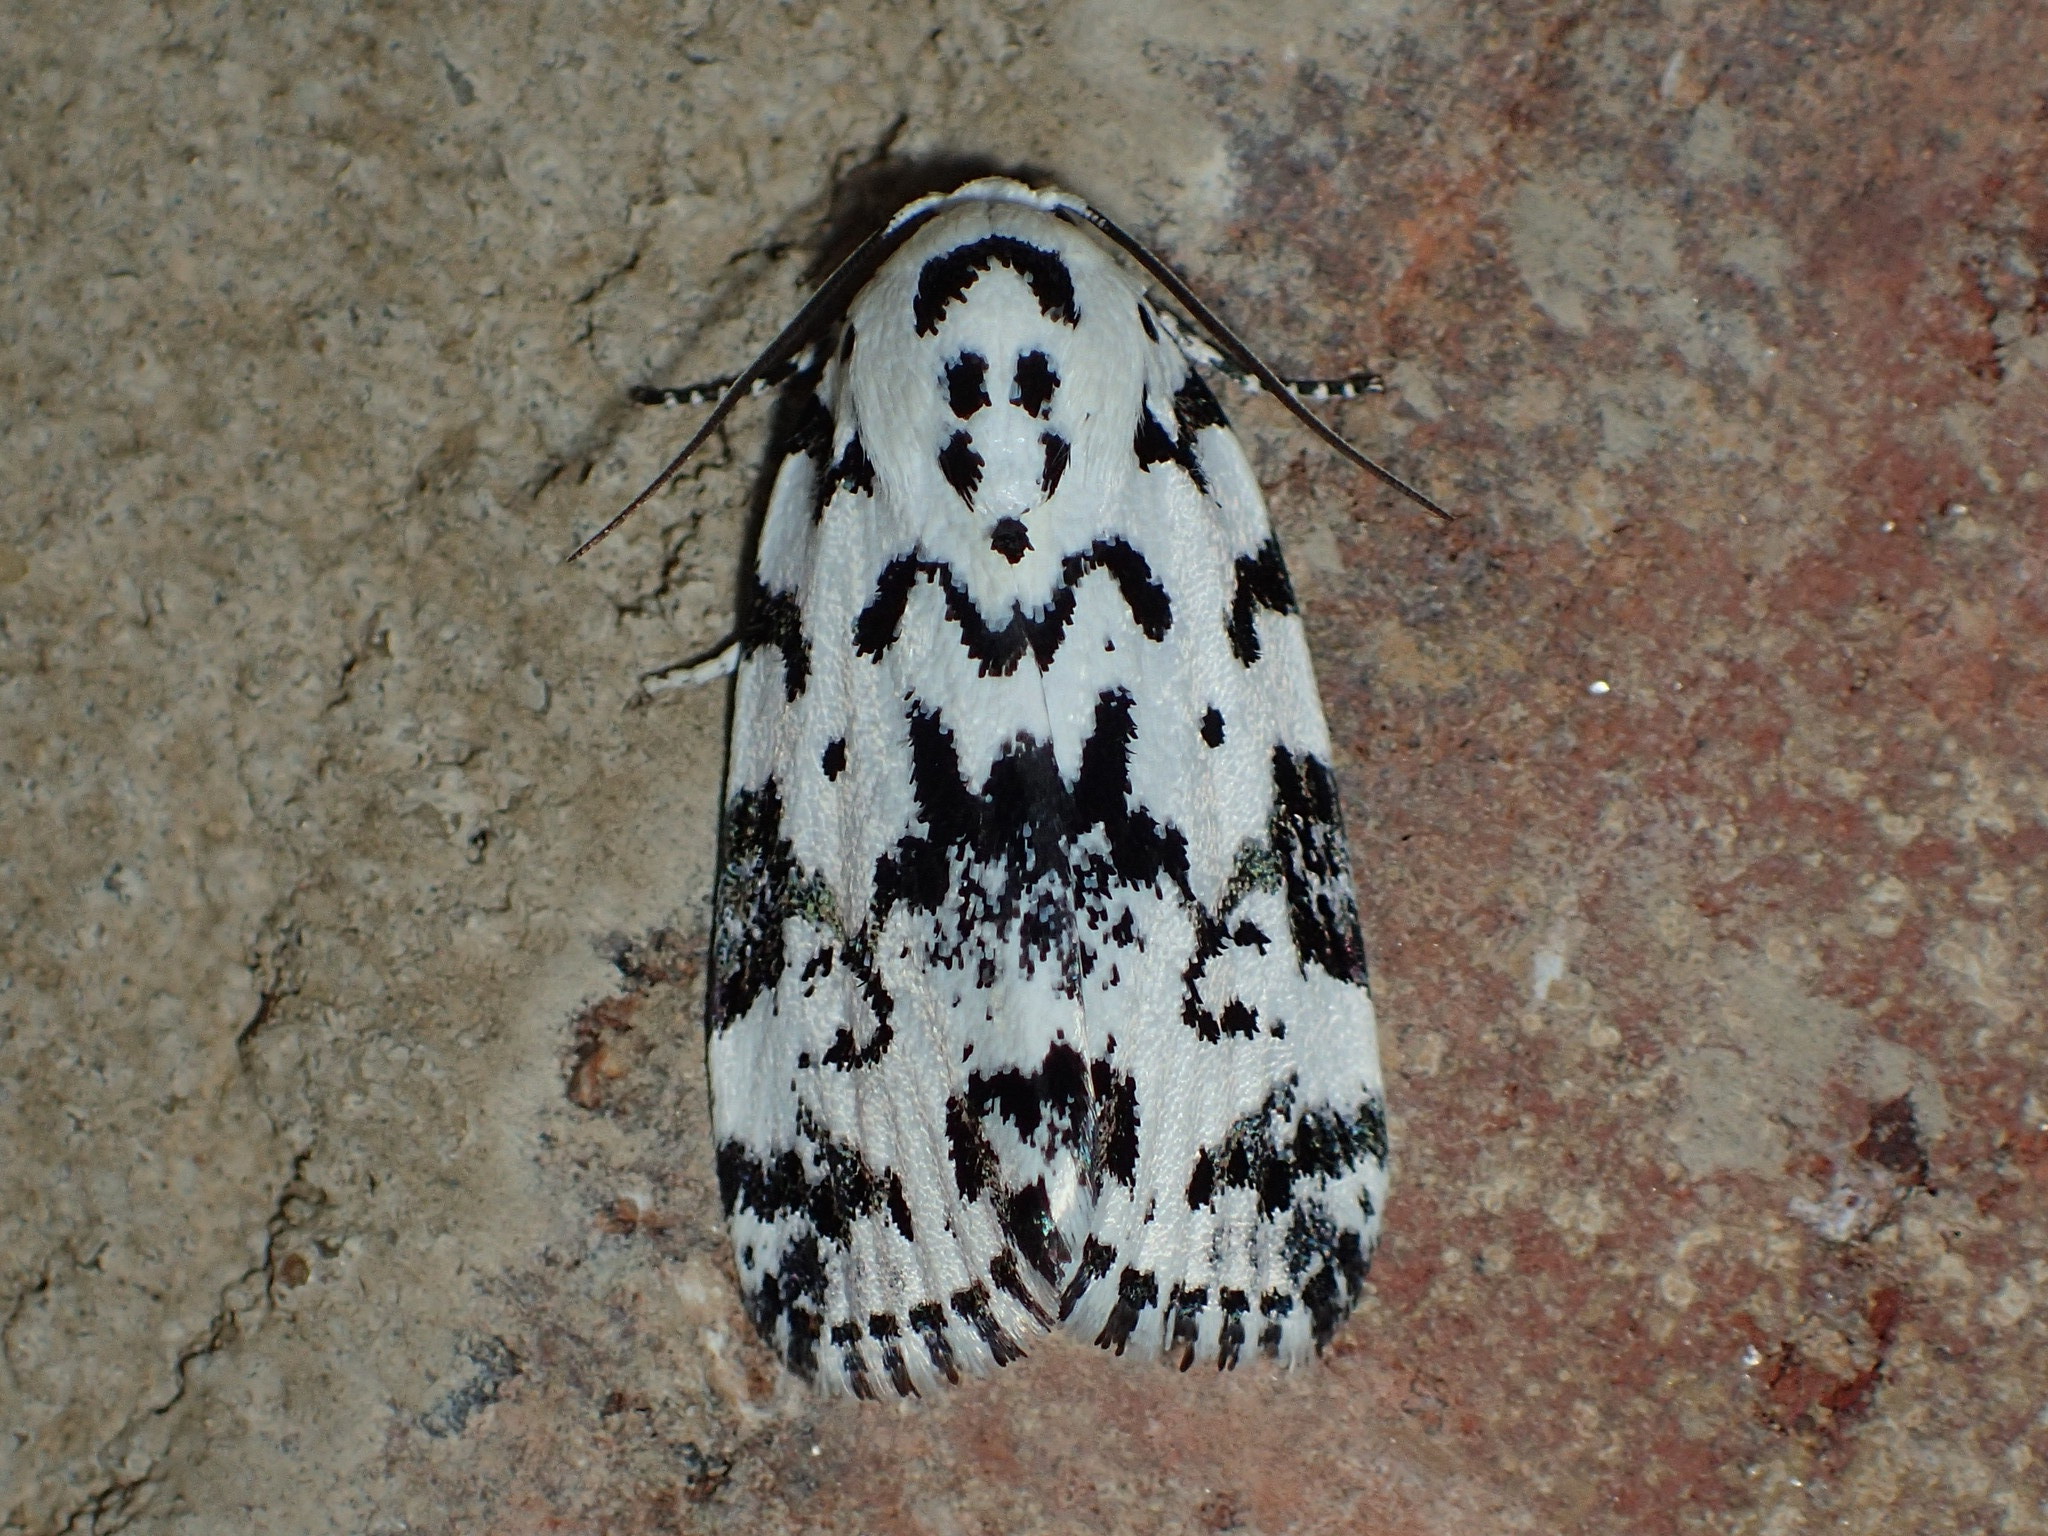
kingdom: Animalia
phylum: Arthropoda
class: Insecta
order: Lepidoptera
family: Noctuidae
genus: Polygrammate
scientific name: Polygrammate hebraeicum
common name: Hebrew moth
